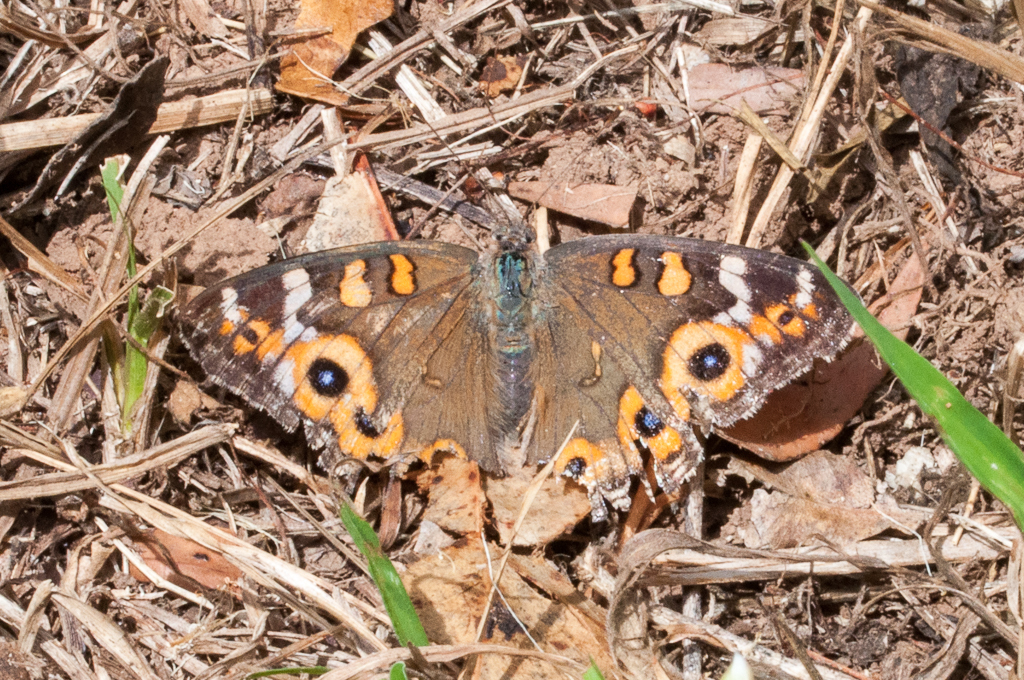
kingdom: Animalia
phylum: Arthropoda
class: Insecta
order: Lepidoptera
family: Nymphalidae
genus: Junonia
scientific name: Junonia villida
